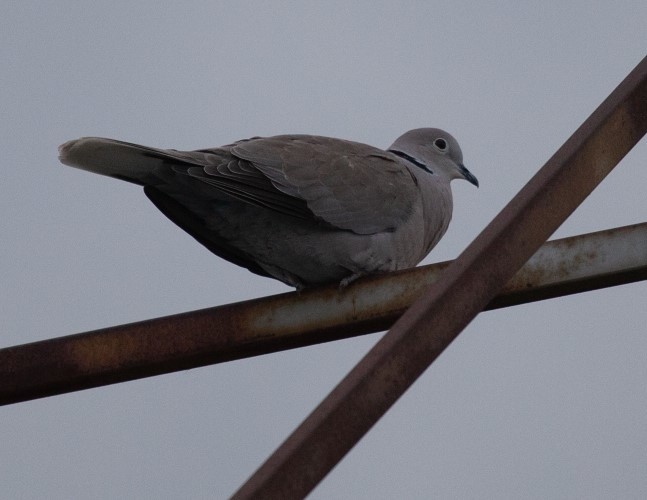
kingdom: Animalia
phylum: Chordata
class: Aves
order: Columbiformes
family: Columbidae
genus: Streptopelia
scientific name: Streptopelia decaocto
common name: Eurasian collared dove
